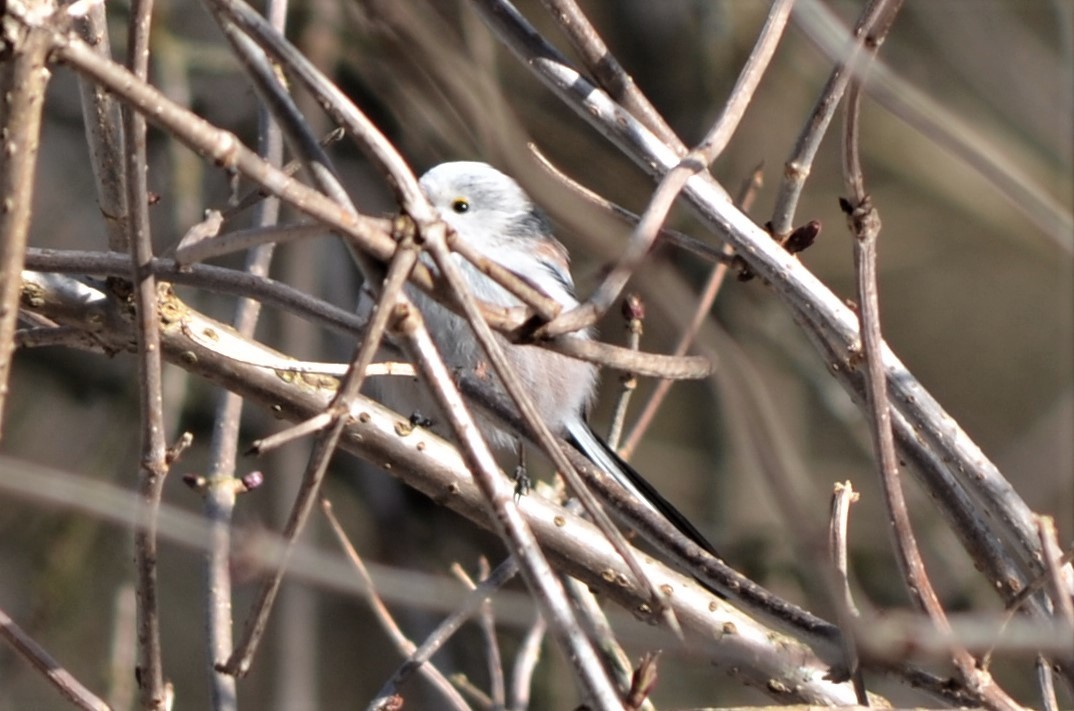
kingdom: Animalia
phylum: Chordata
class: Aves
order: Passeriformes
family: Aegithalidae
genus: Aegithalos
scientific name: Aegithalos caudatus
